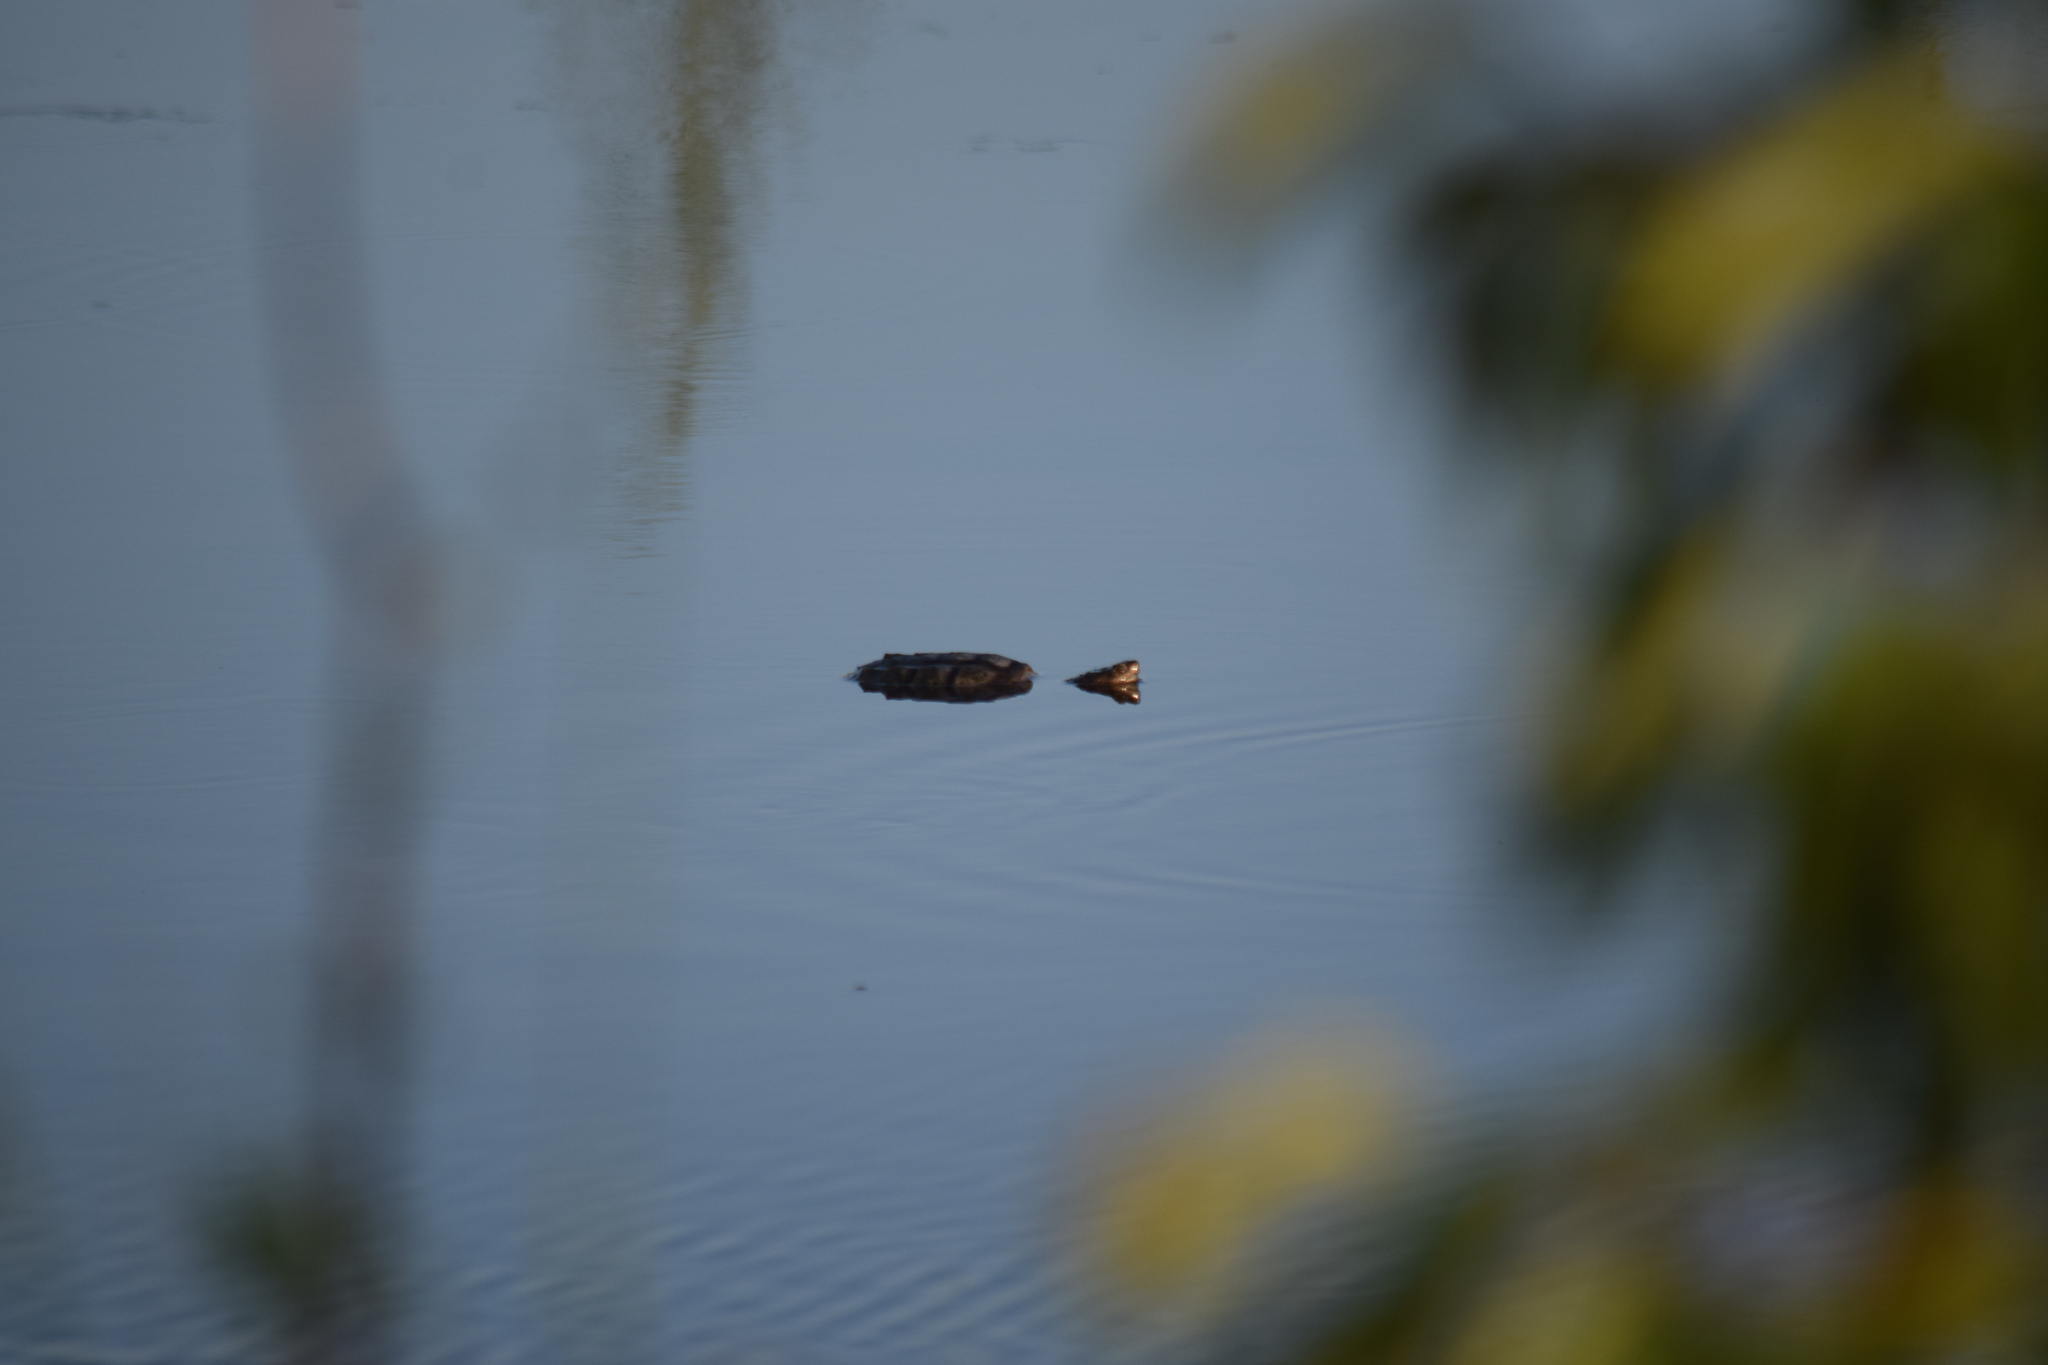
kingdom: Animalia
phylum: Chordata
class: Testudines
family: Chelydridae
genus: Chelydra
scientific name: Chelydra serpentina
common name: Common snapping turtle
